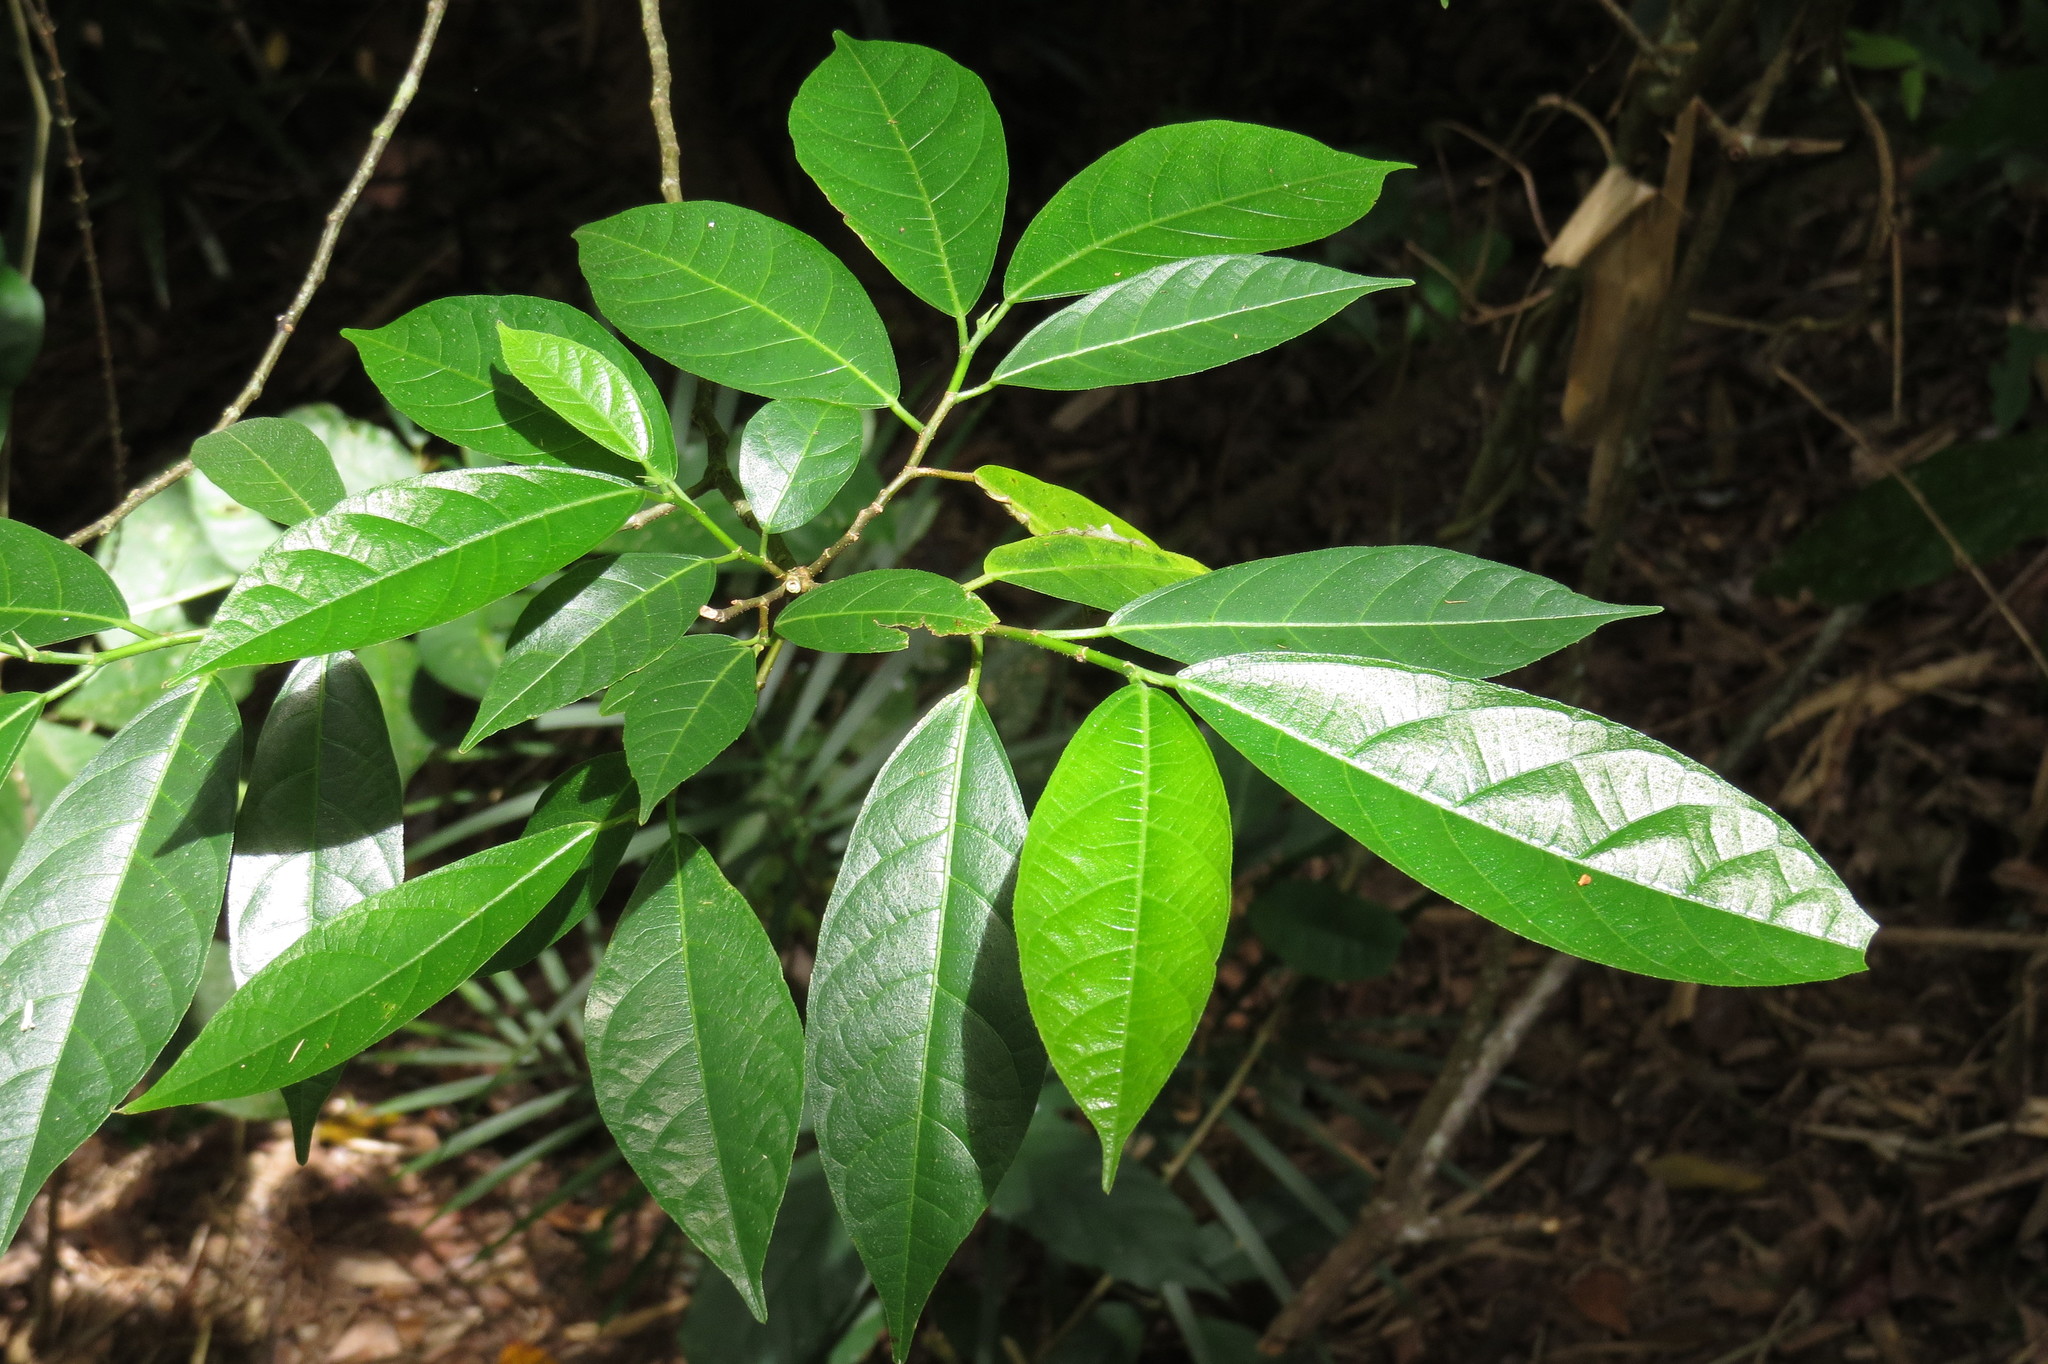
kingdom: Plantae
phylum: Tracheophyta
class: Magnoliopsida
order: Rosales
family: Moraceae
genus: Ficus
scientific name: Ficus leptoclada
